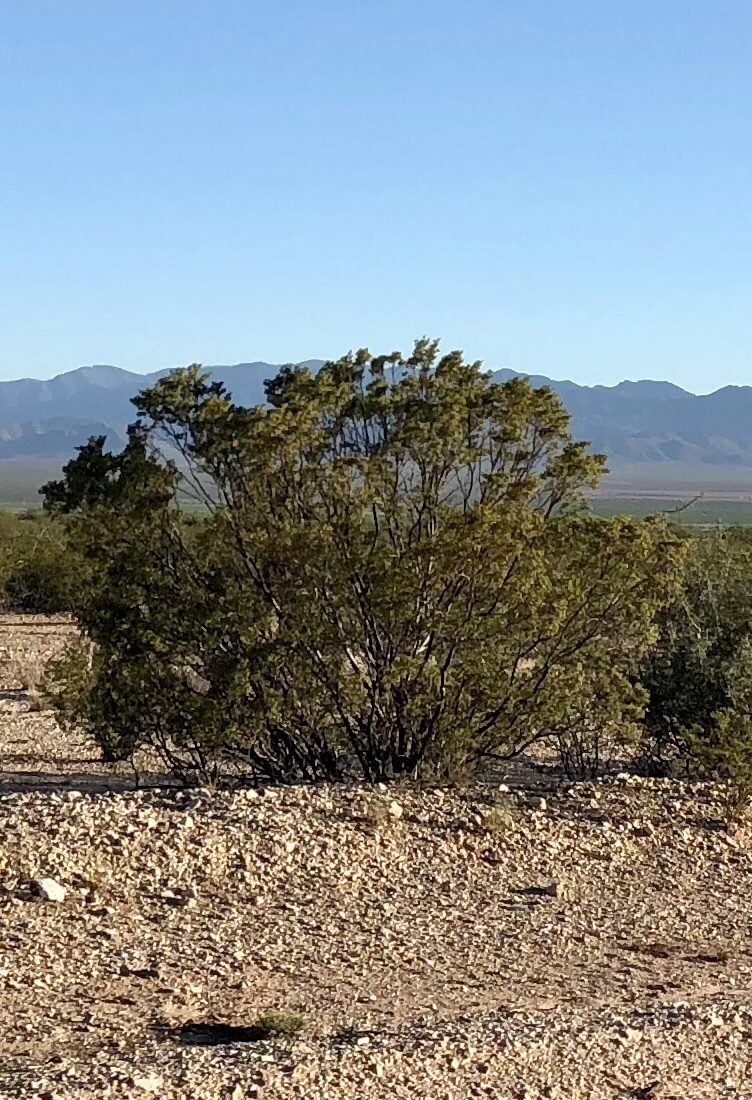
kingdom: Plantae
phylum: Tracheophyta
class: Magnoliopsida
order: Zygophyllales
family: Zygophyllaceae
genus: Larrea
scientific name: Larrea tridentata
